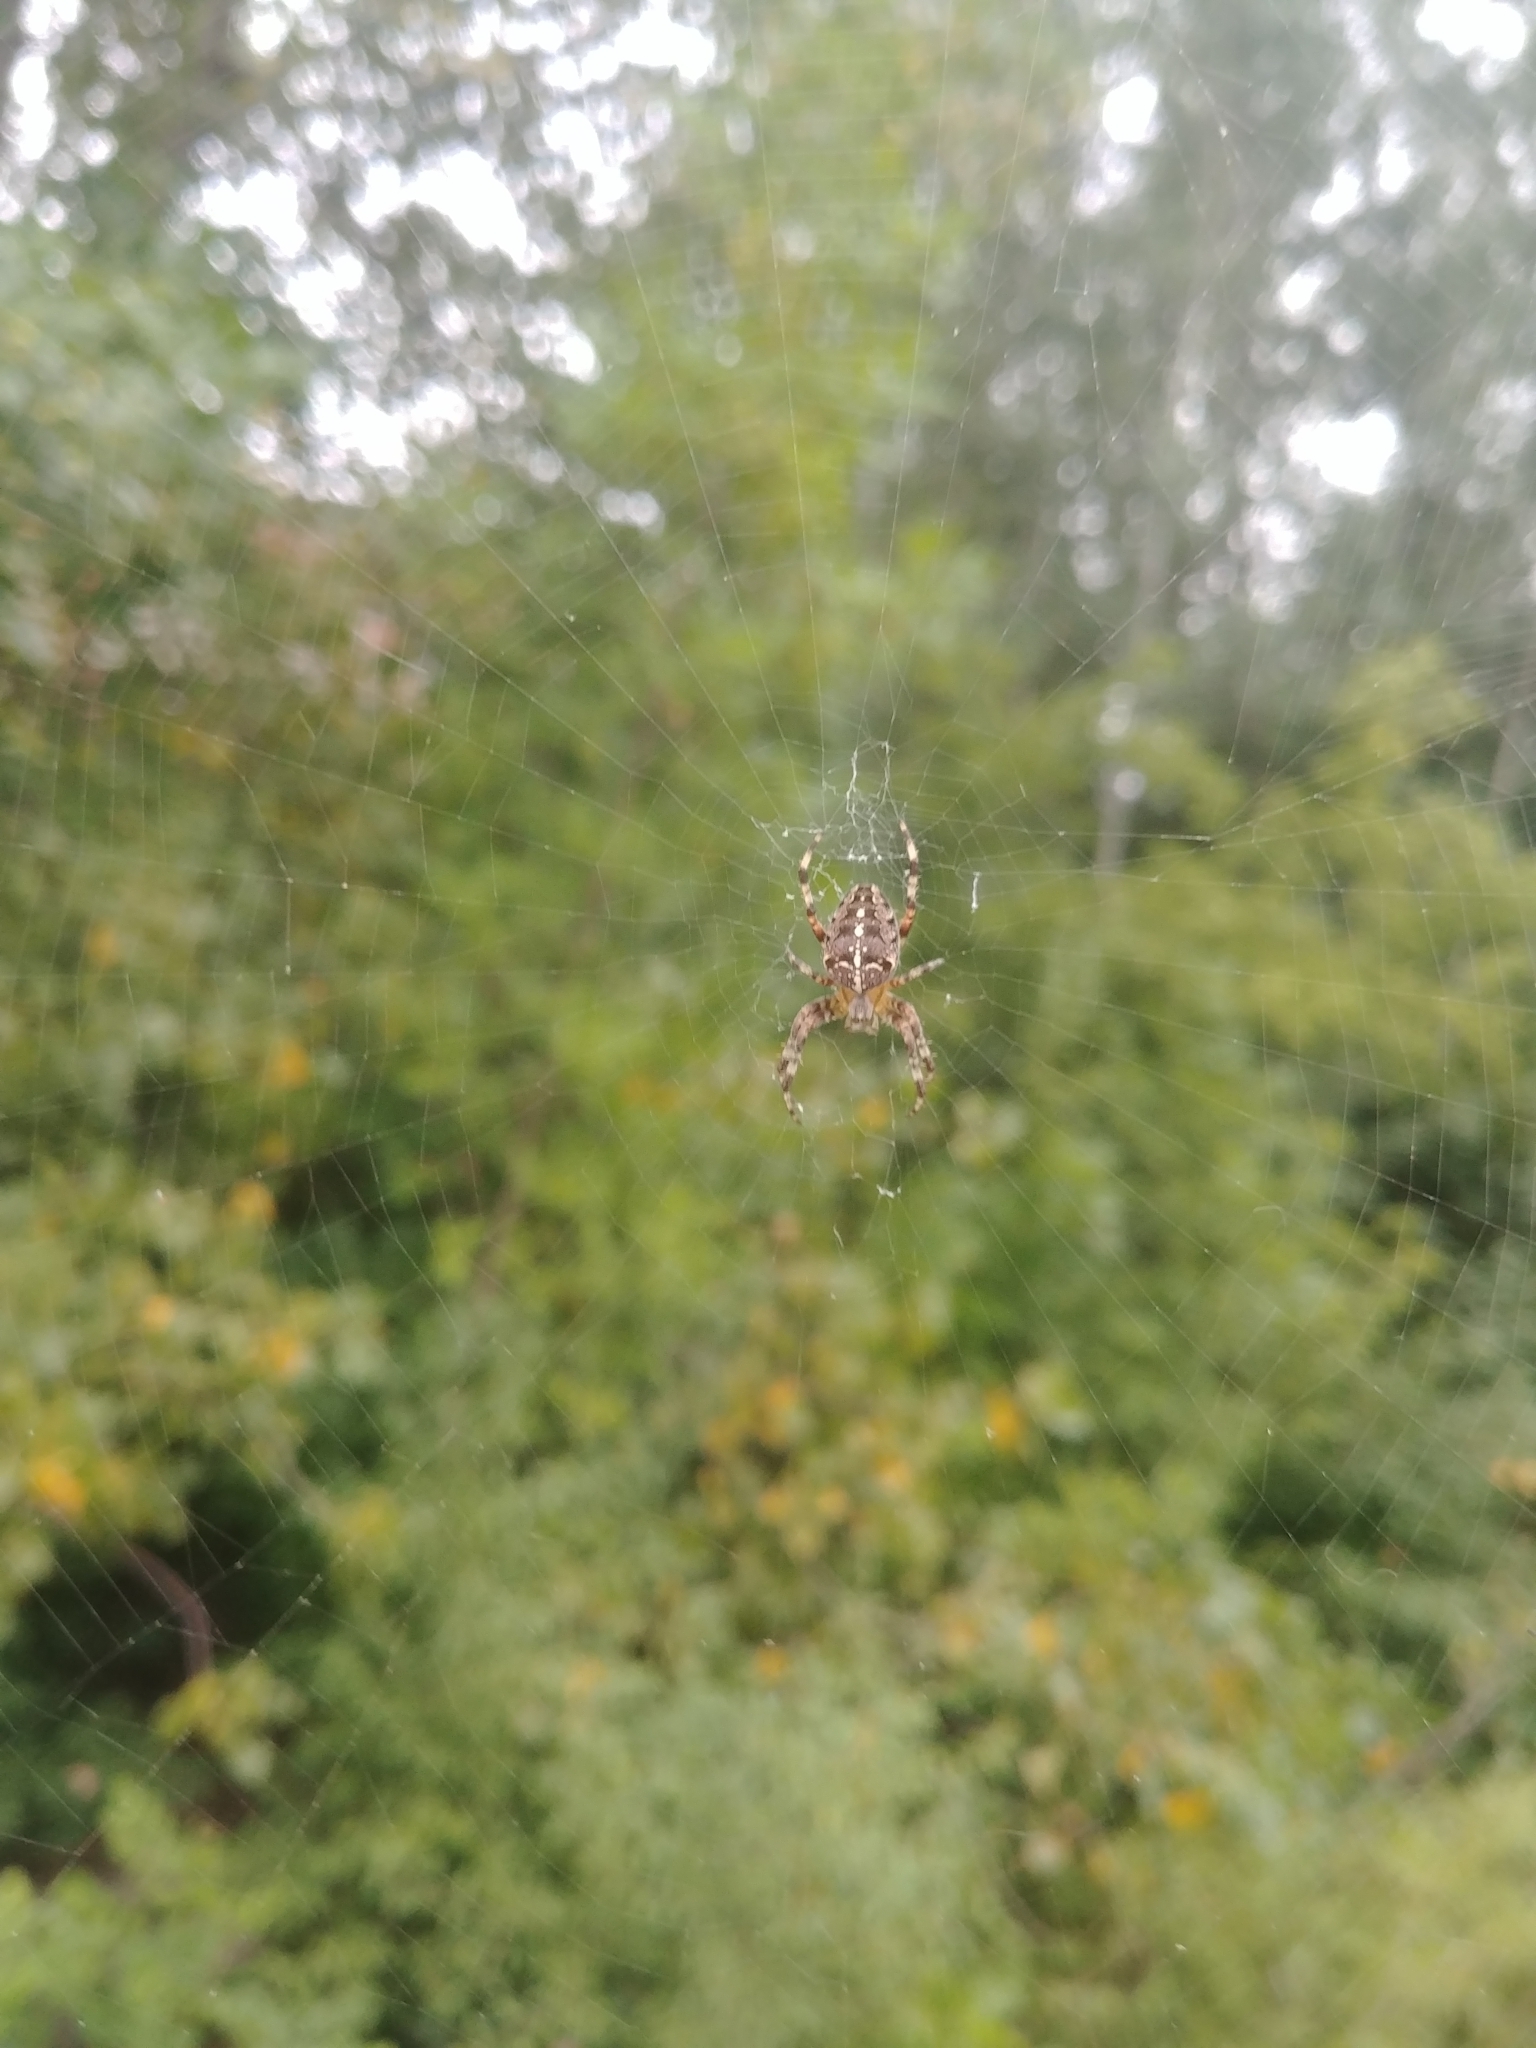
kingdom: Animalia
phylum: Arthropoda
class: Arachnida
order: Araneae
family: Araneidae
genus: Araneus
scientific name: Araneus diadematus
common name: Cross orbweaver
